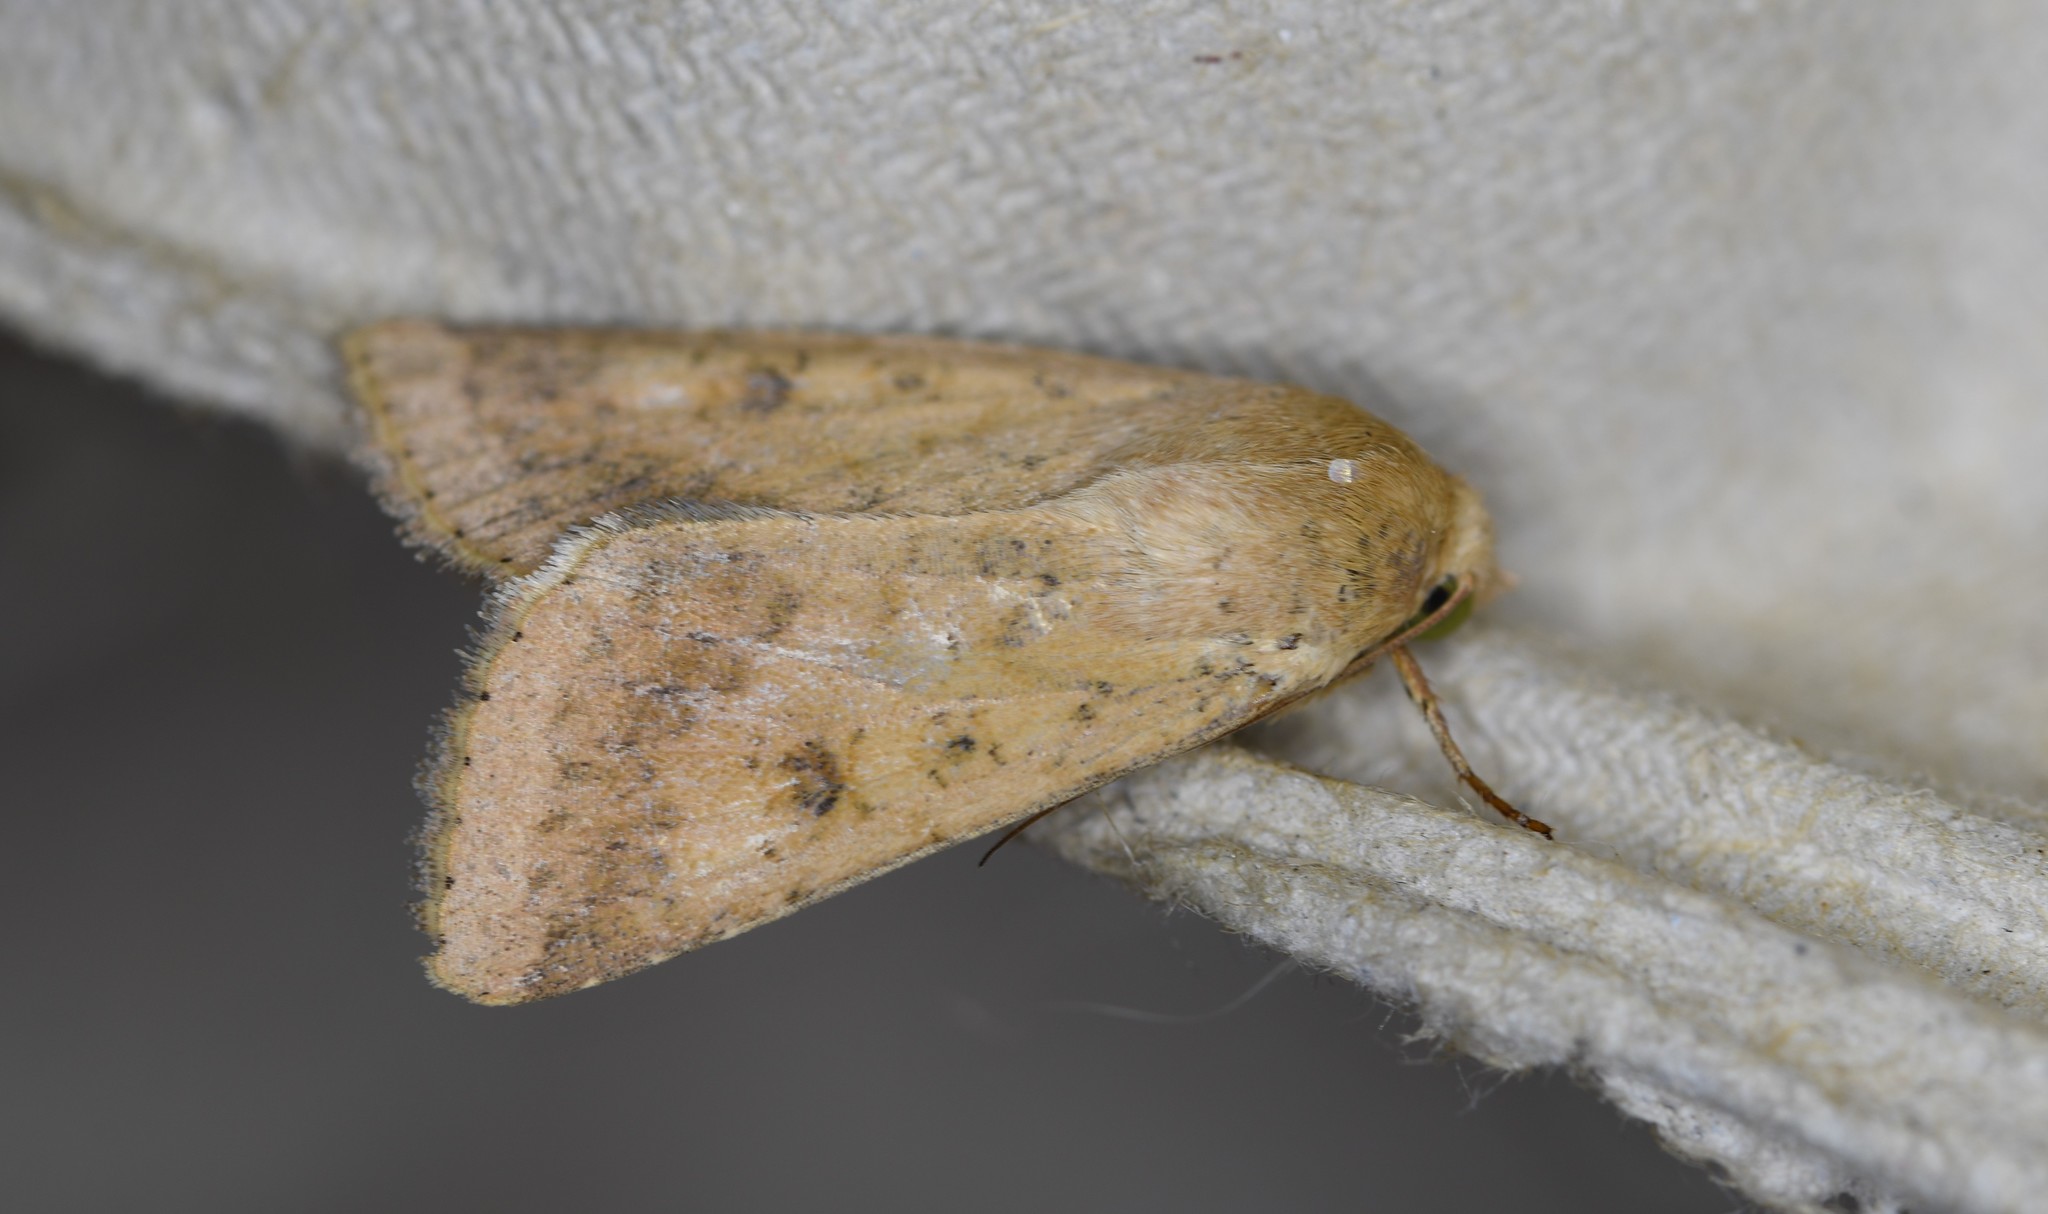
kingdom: Animalia
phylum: Arthropoda
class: Insecta
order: Lepidoptera
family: Noctuidae
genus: Helicoverpa
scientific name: Helicoverpa armigera
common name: Cotton bollworm
